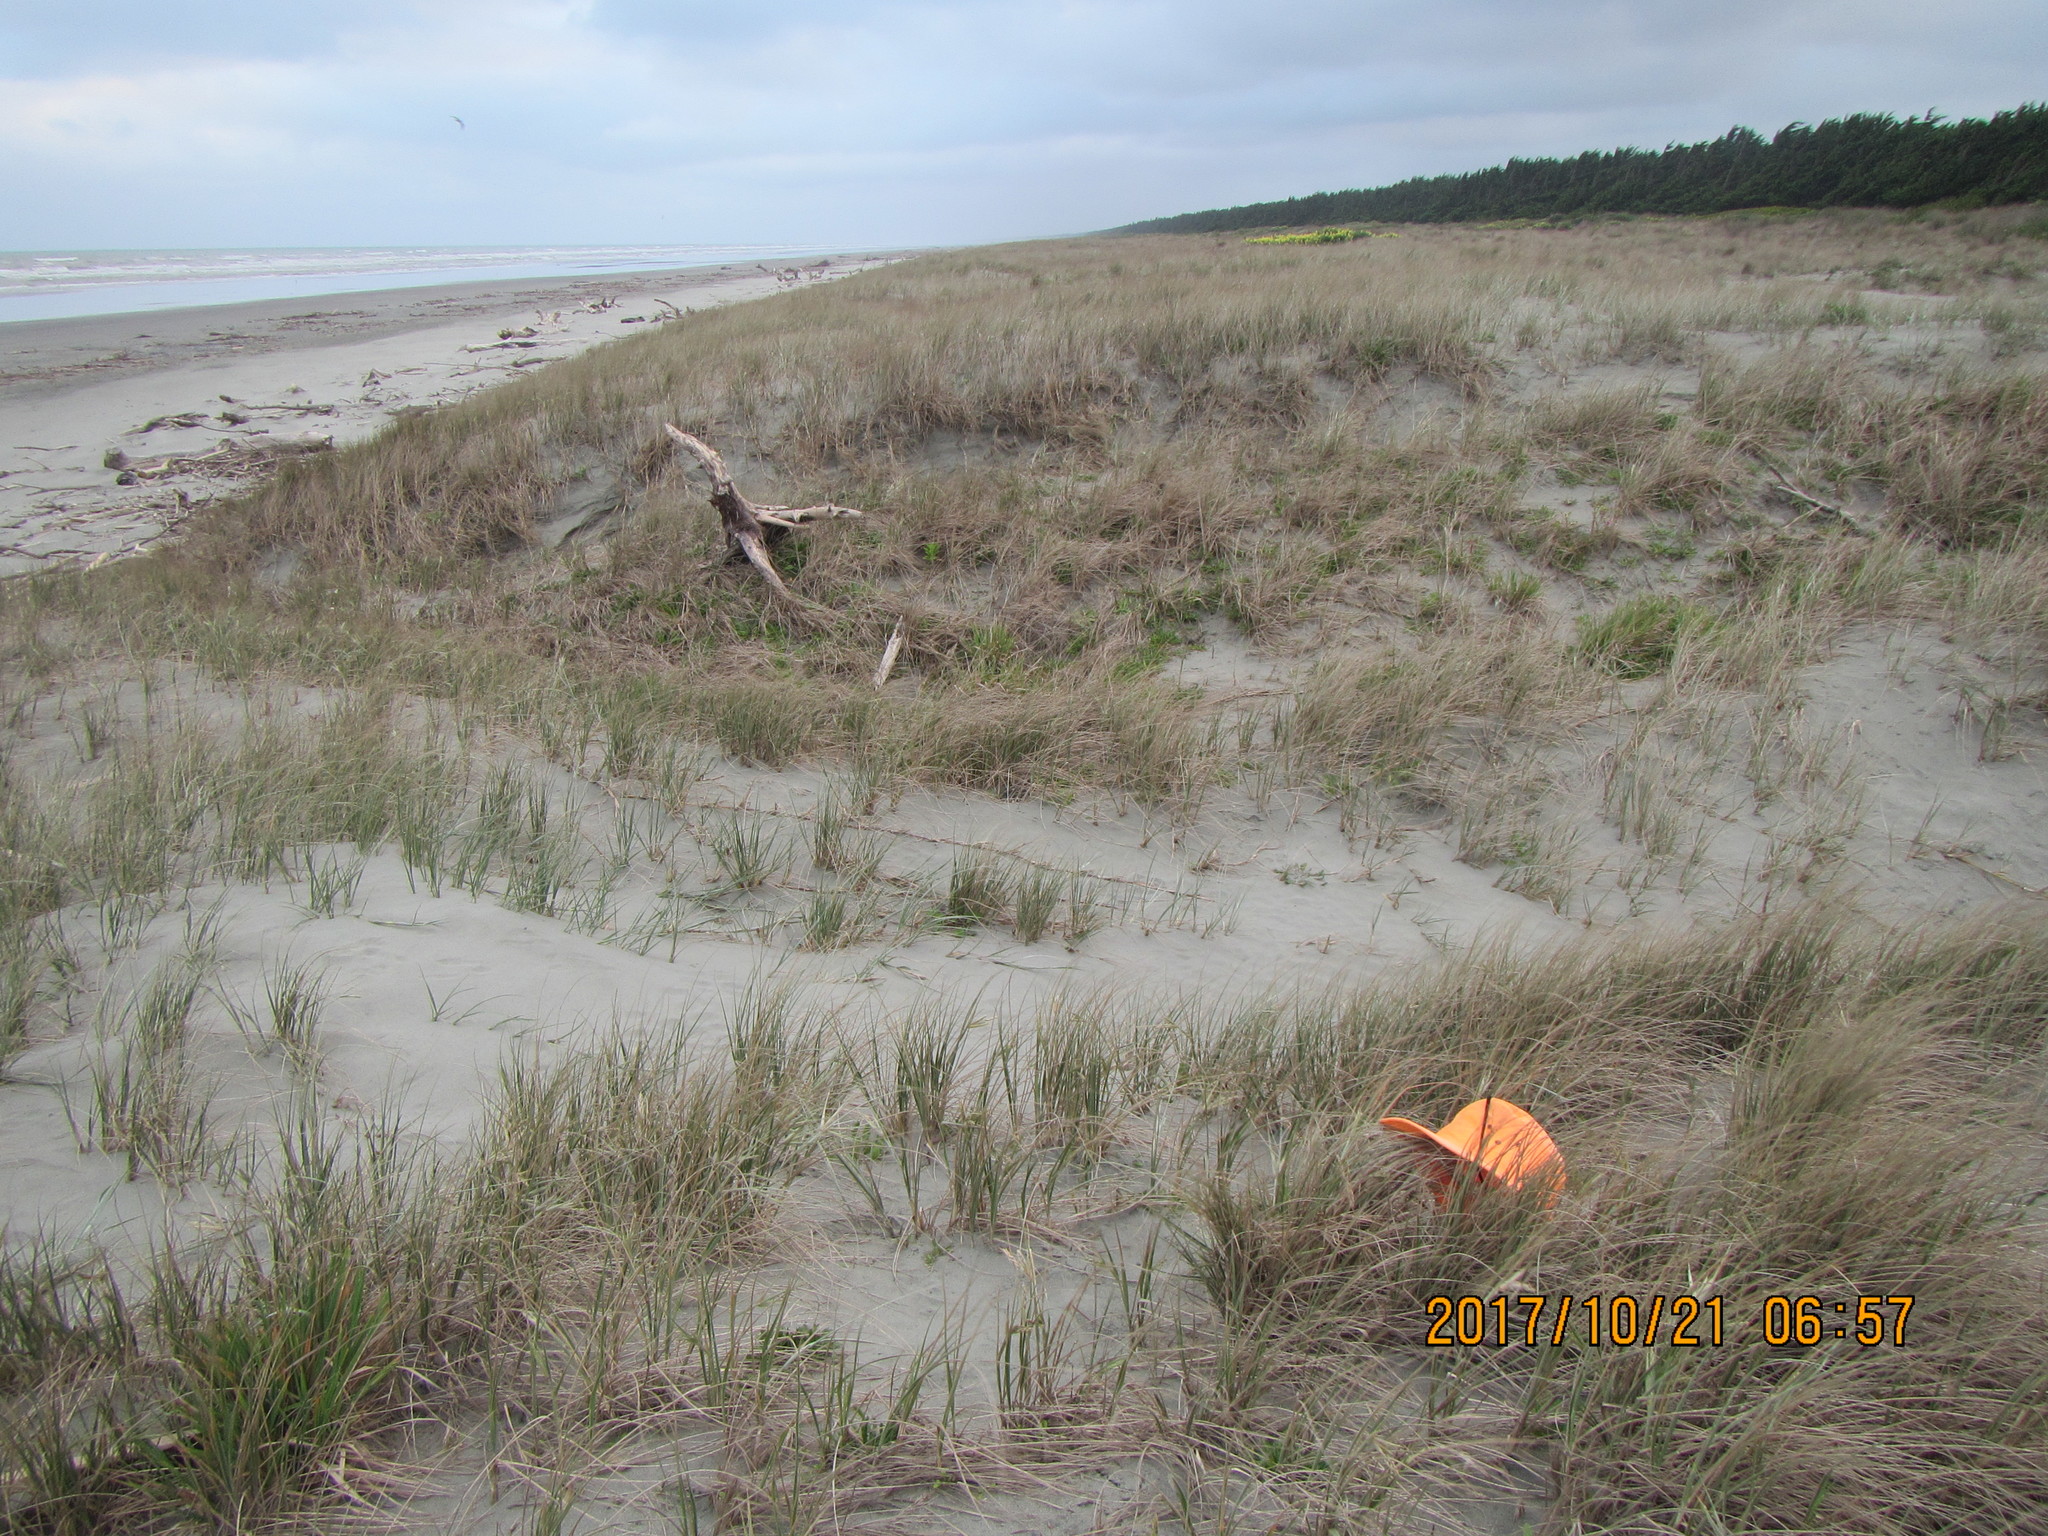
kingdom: Animalia
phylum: Arthropoda
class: Arachnida
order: Araneae
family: Thomisidae
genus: Sidymella
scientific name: Sidymella trapezia
